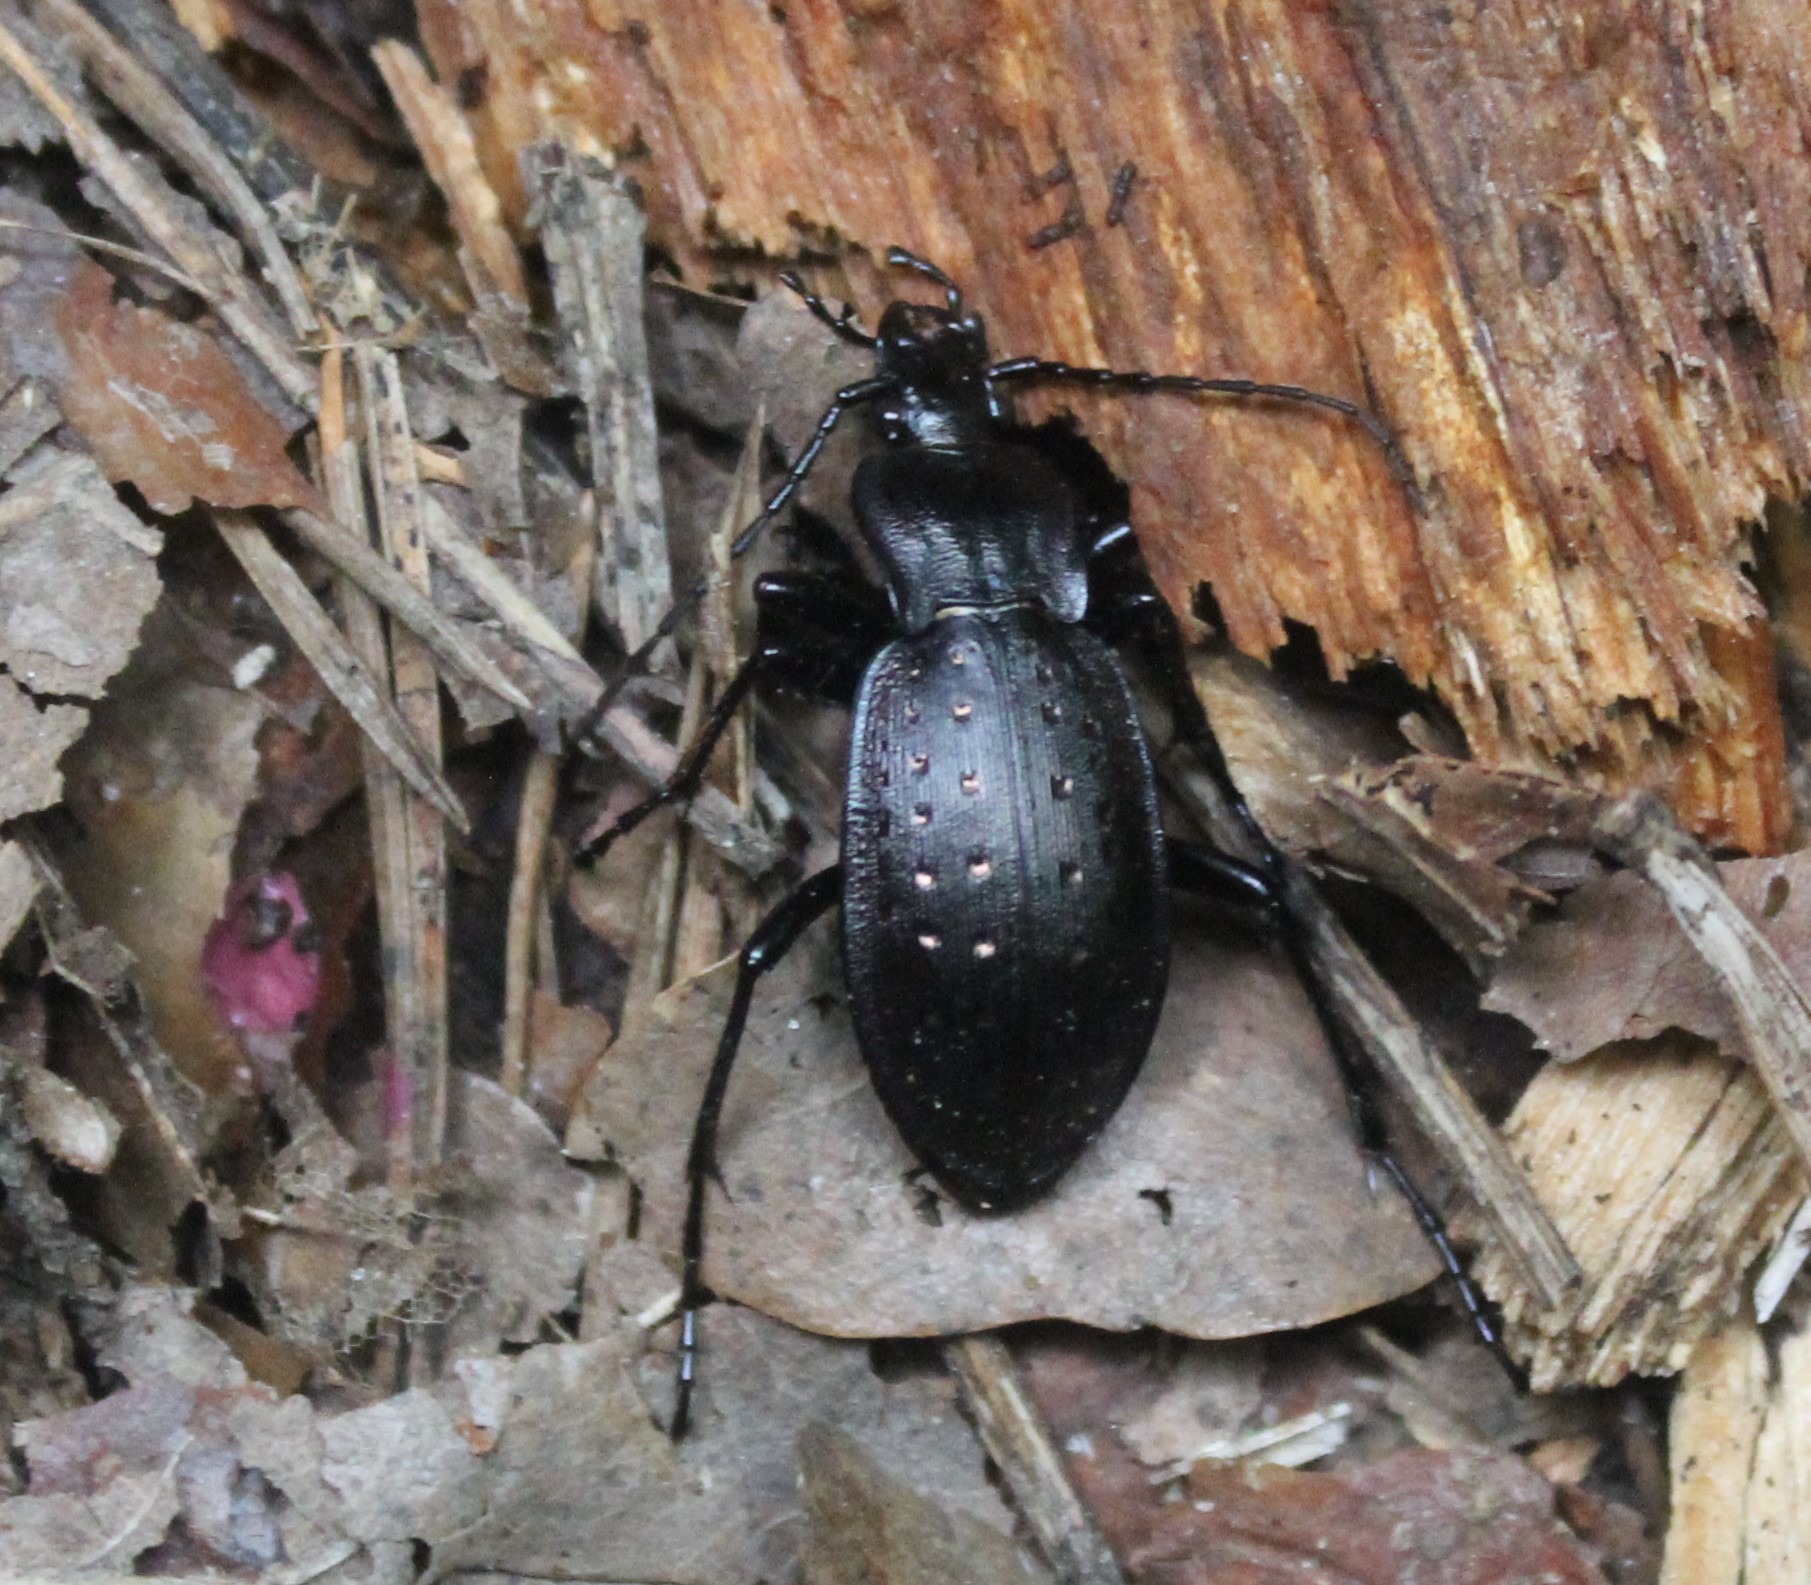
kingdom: Animalia
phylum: Arthropoda
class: Insecta
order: Coleoptera
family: Carabidae
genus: Carabus
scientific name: Carabus hortensis
